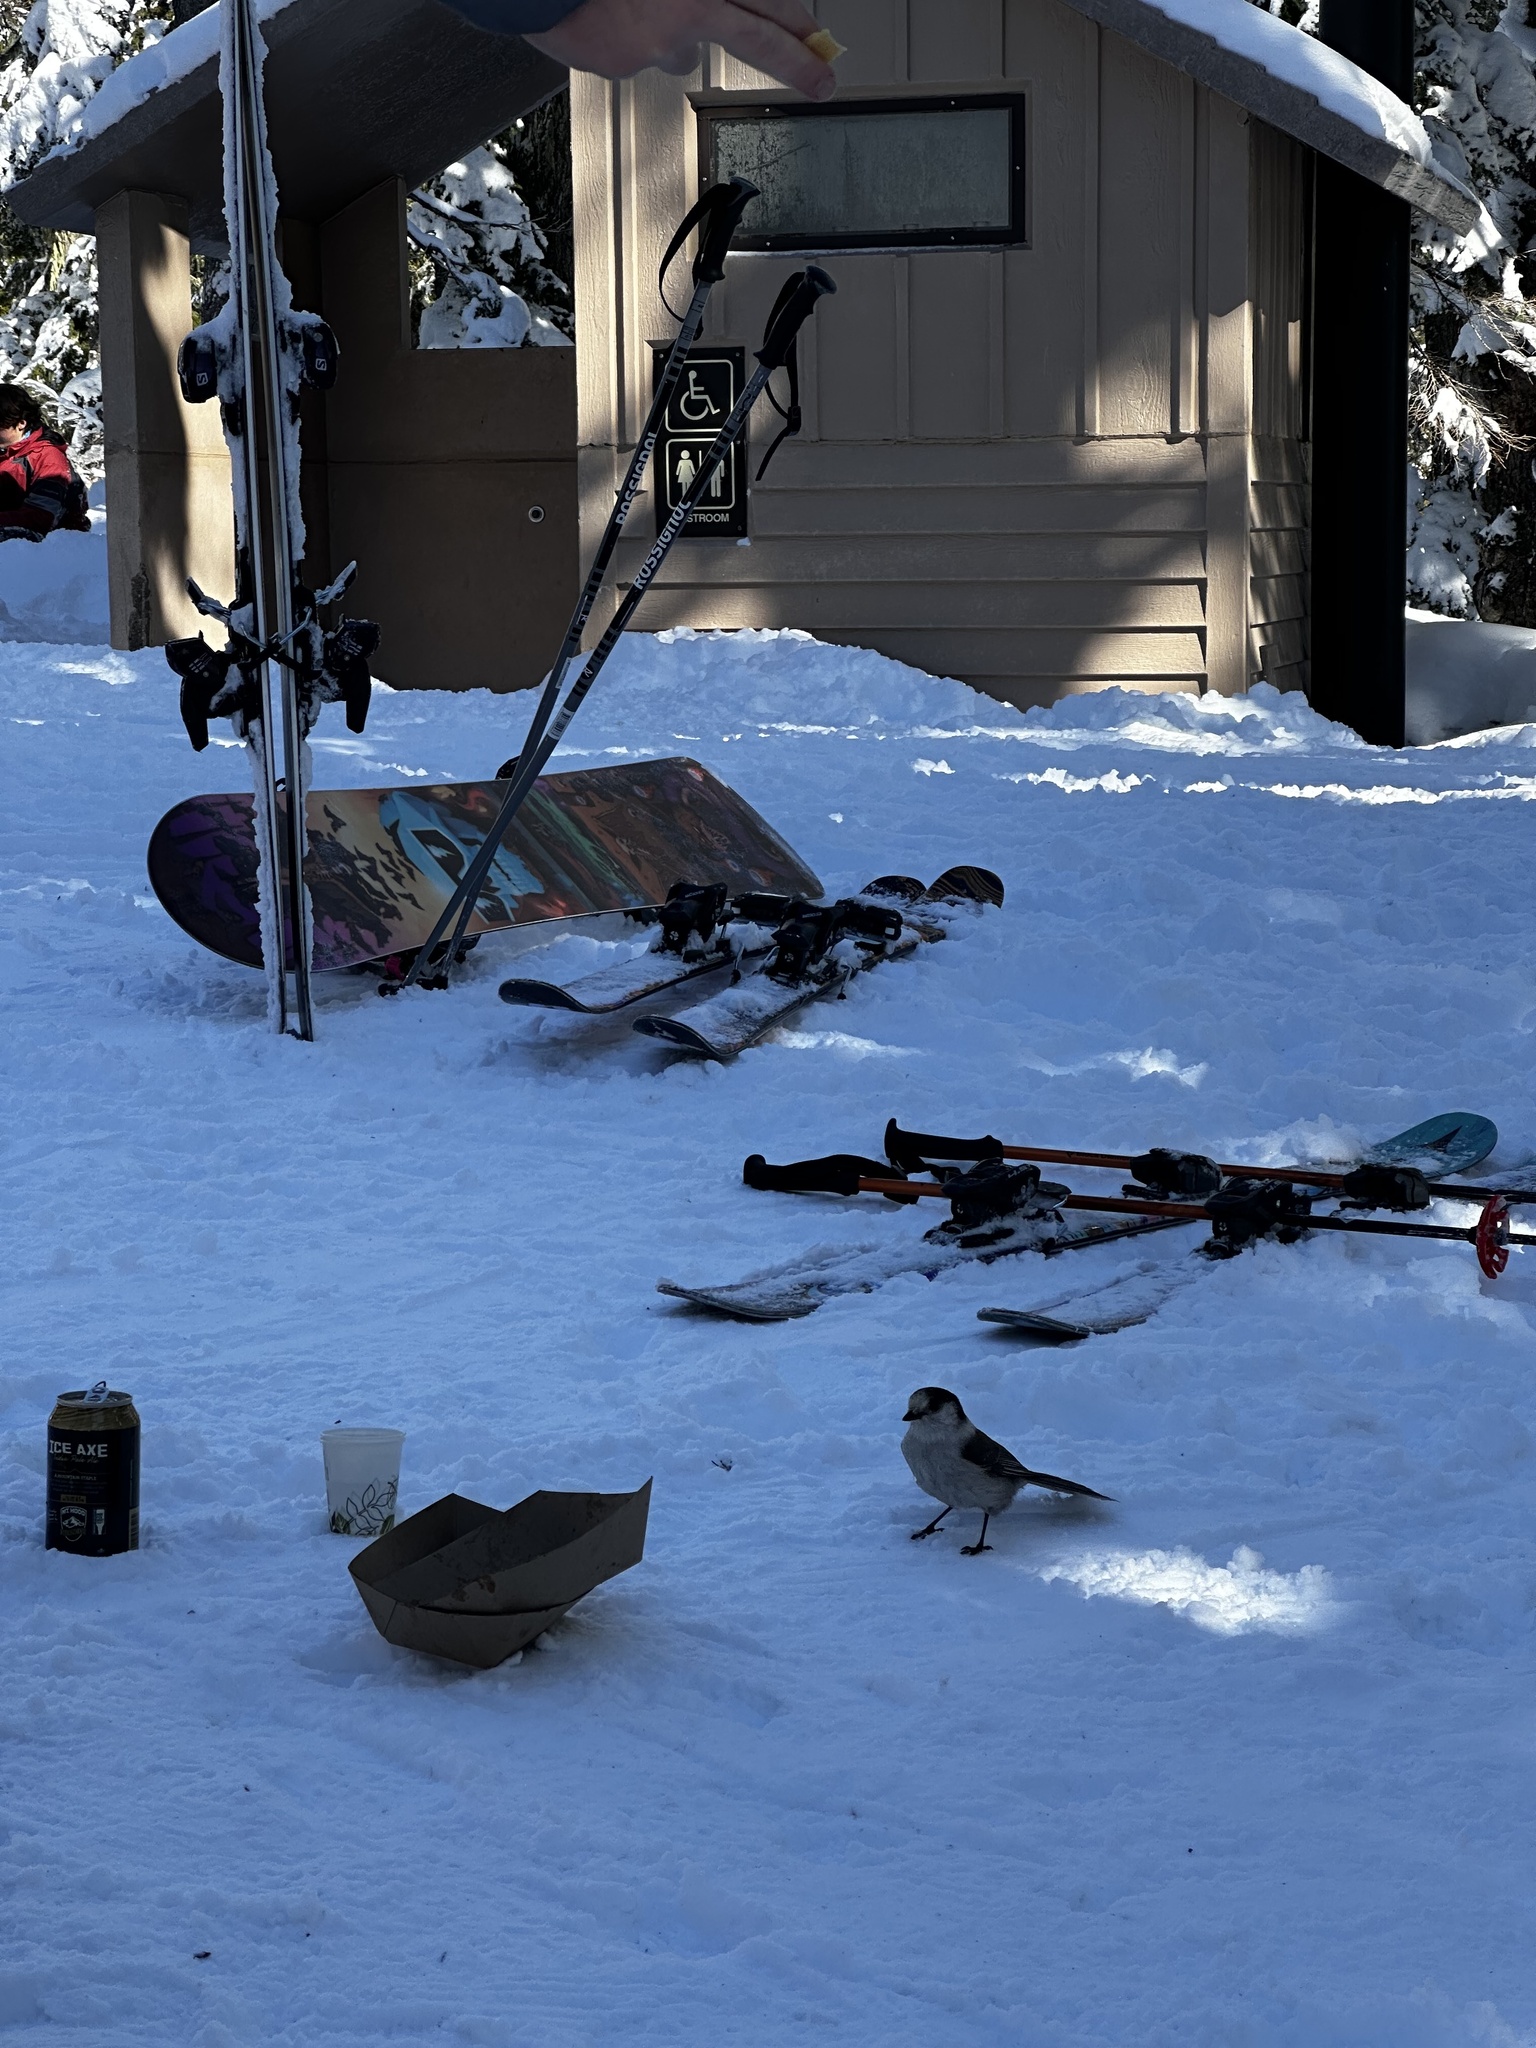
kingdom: Animalia
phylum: Chordata
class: Aves
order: Passeriformes
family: Corvidae
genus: Perisoreus
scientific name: Perisoreus canadensis
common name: Gray jay
